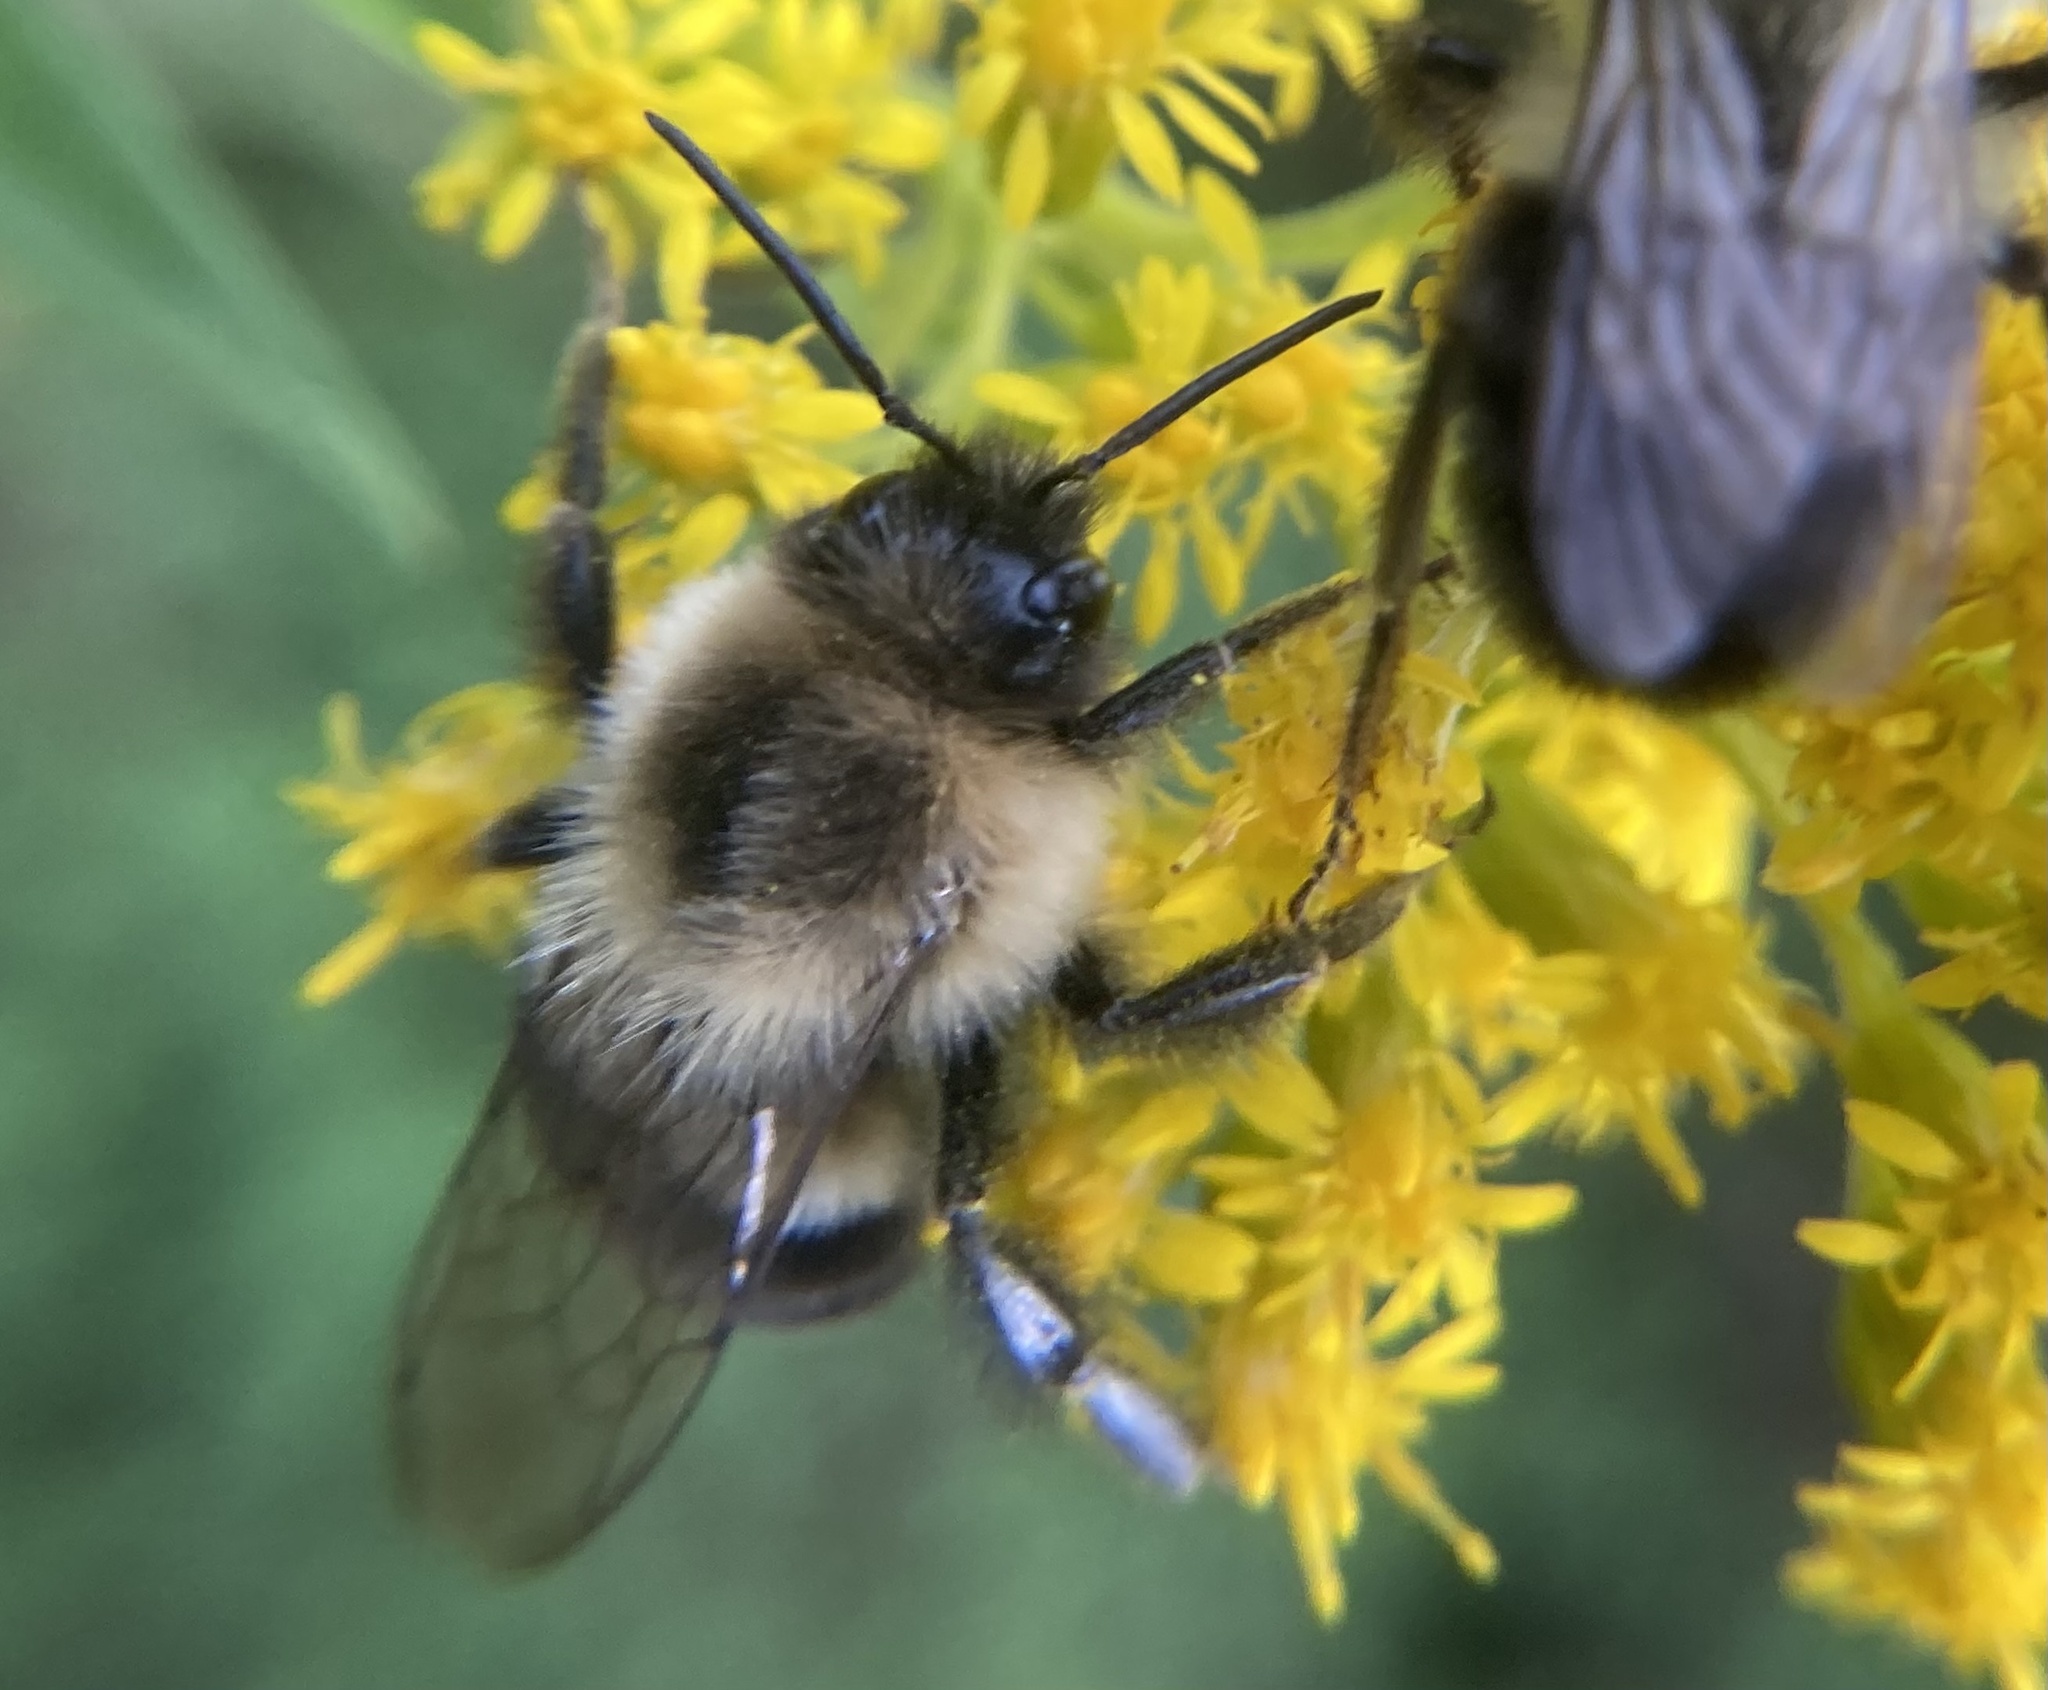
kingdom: Animalia
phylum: Arthropoda
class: Insecta
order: Hymenoptera
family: Apidae
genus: Bombus
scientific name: Bombus impatiens
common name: Common eastern bumble bee
